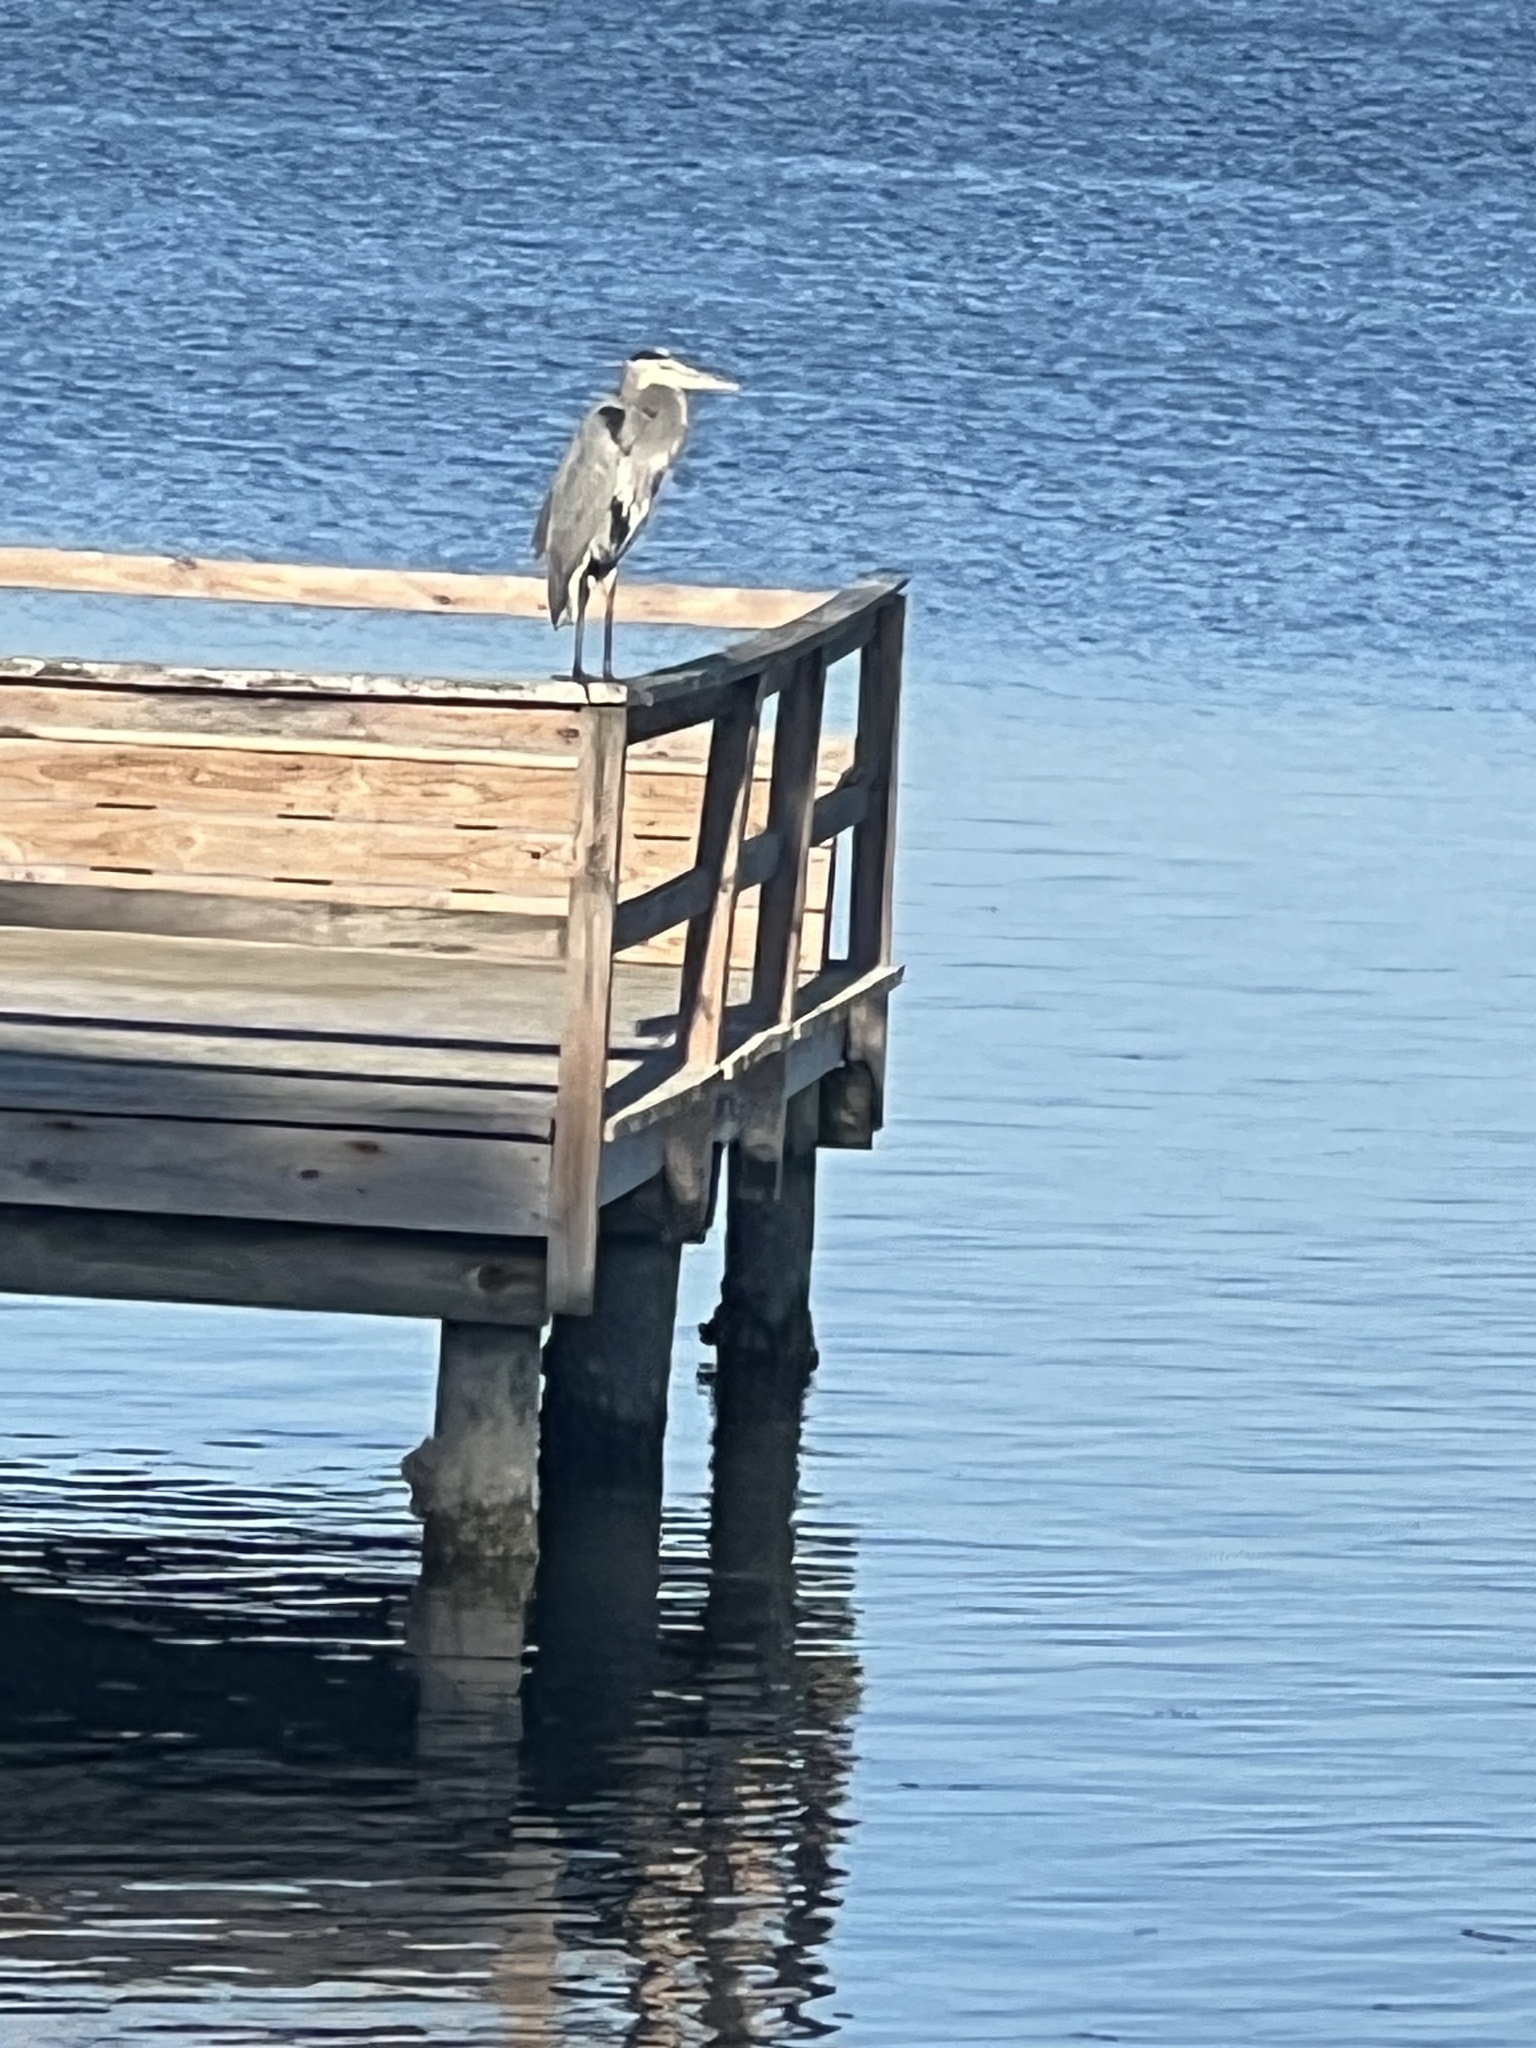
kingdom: Animalia
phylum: Chordata
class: Aves
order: Pelecaniformes
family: Ardeidae
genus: Ardea
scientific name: Ardea herodias
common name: Great blue heron
